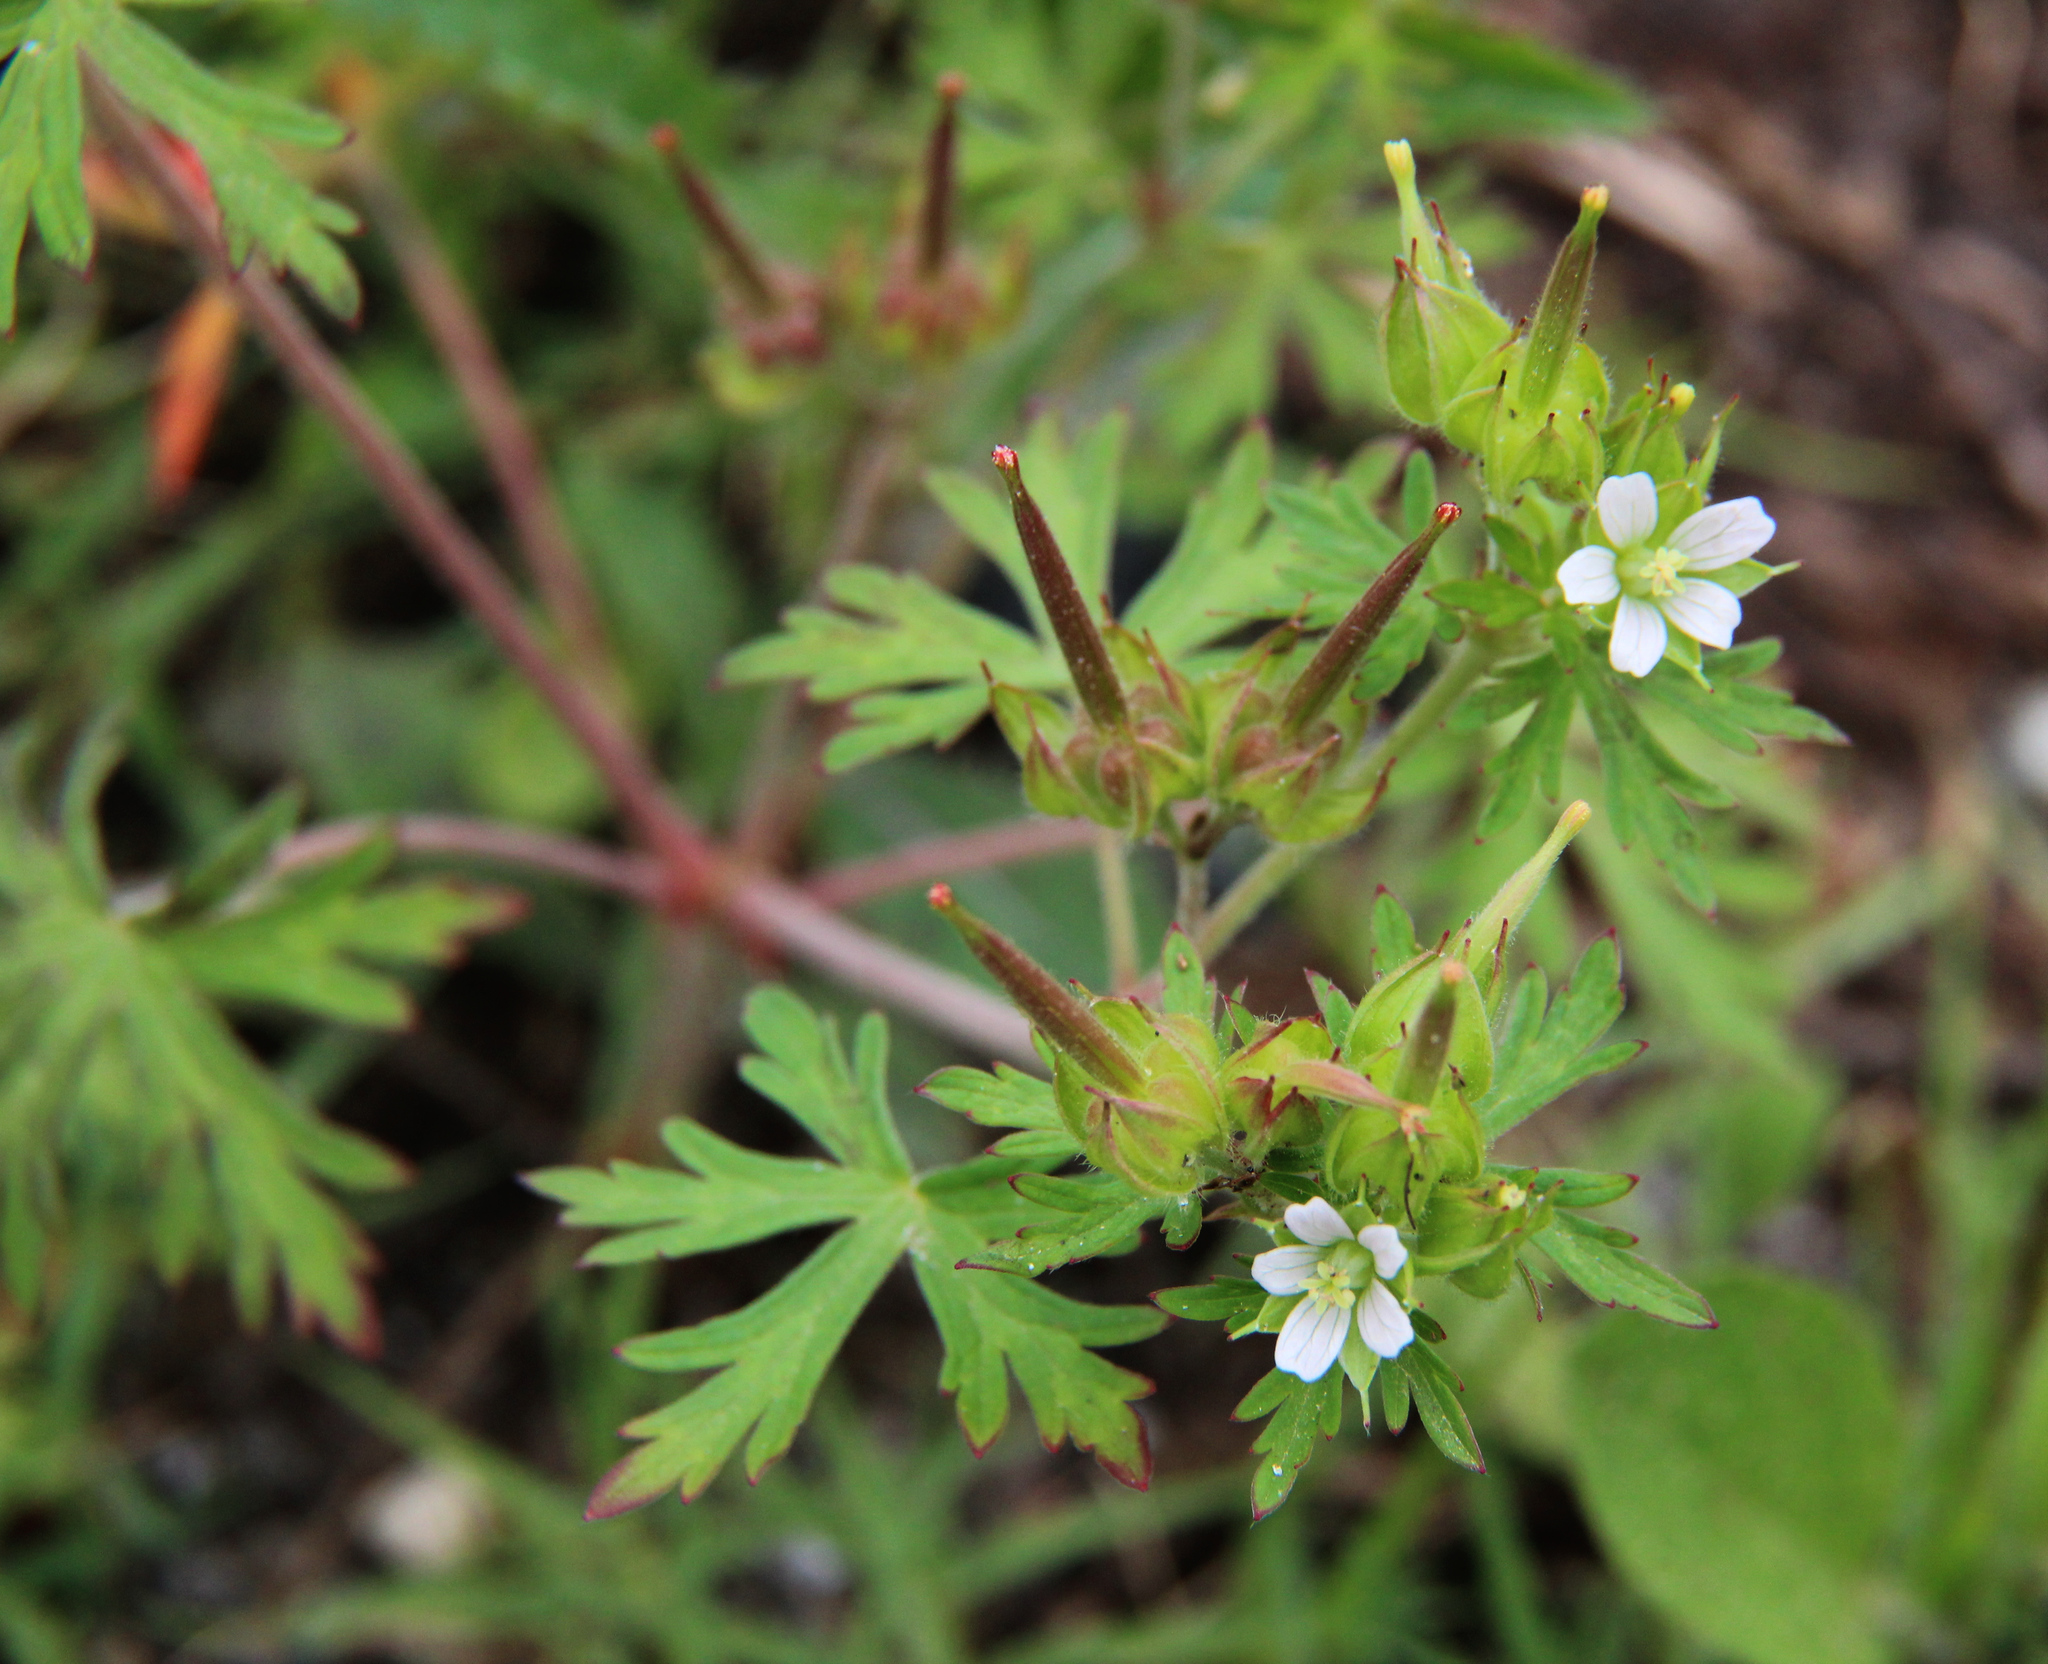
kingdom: Plantae
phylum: Tracheophyta
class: Magnoliopsida
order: Geraniales
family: Geraniaceae
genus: Geranium
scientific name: Geranium carolinianum
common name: Carolina crane's-bill
